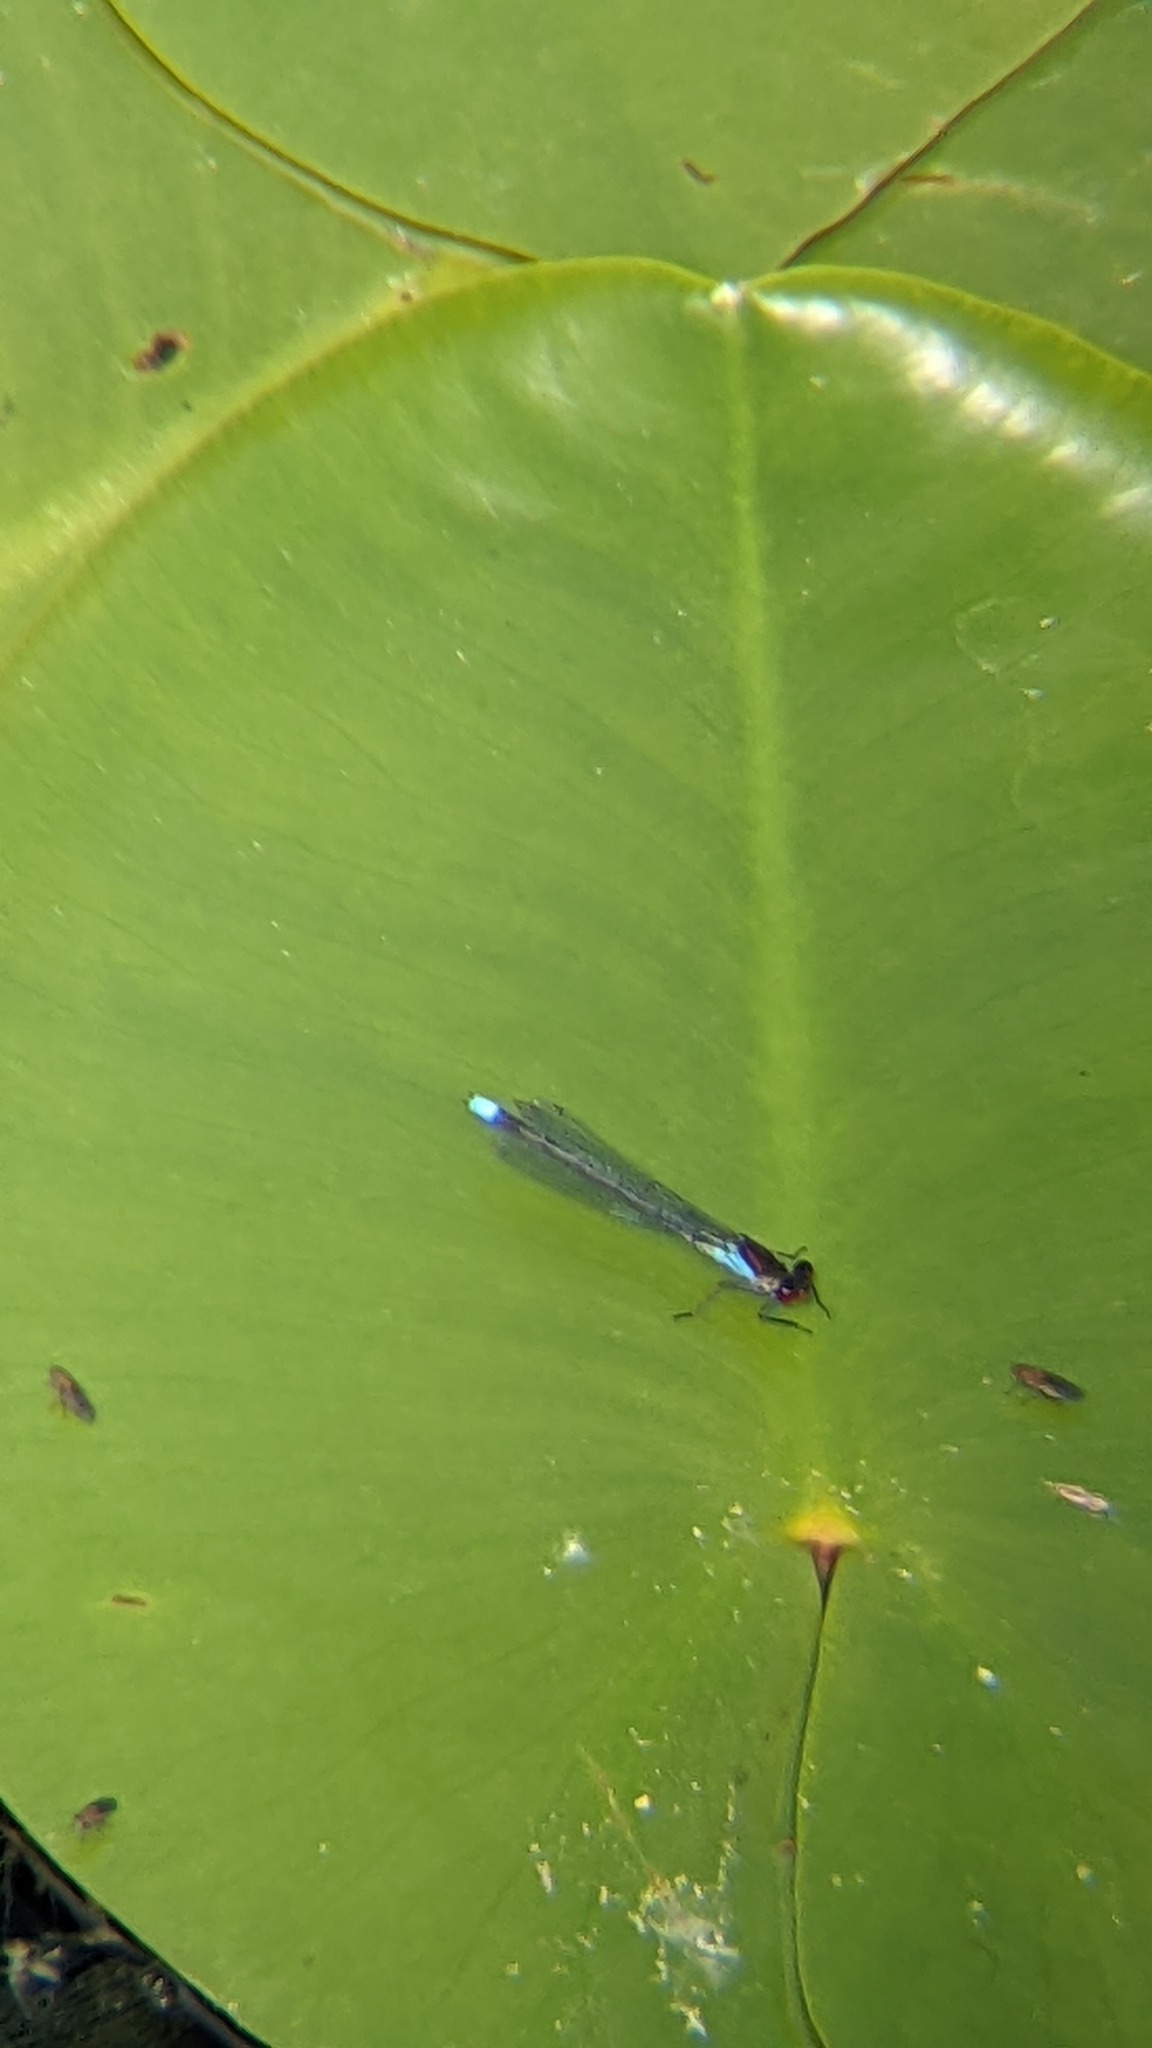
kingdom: Animalia
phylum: Arthropoda
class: Insecta
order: Odonata
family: Coenagrionidae
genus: Erythromma
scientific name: Erythromma najas
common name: Red-eyed damselfly
